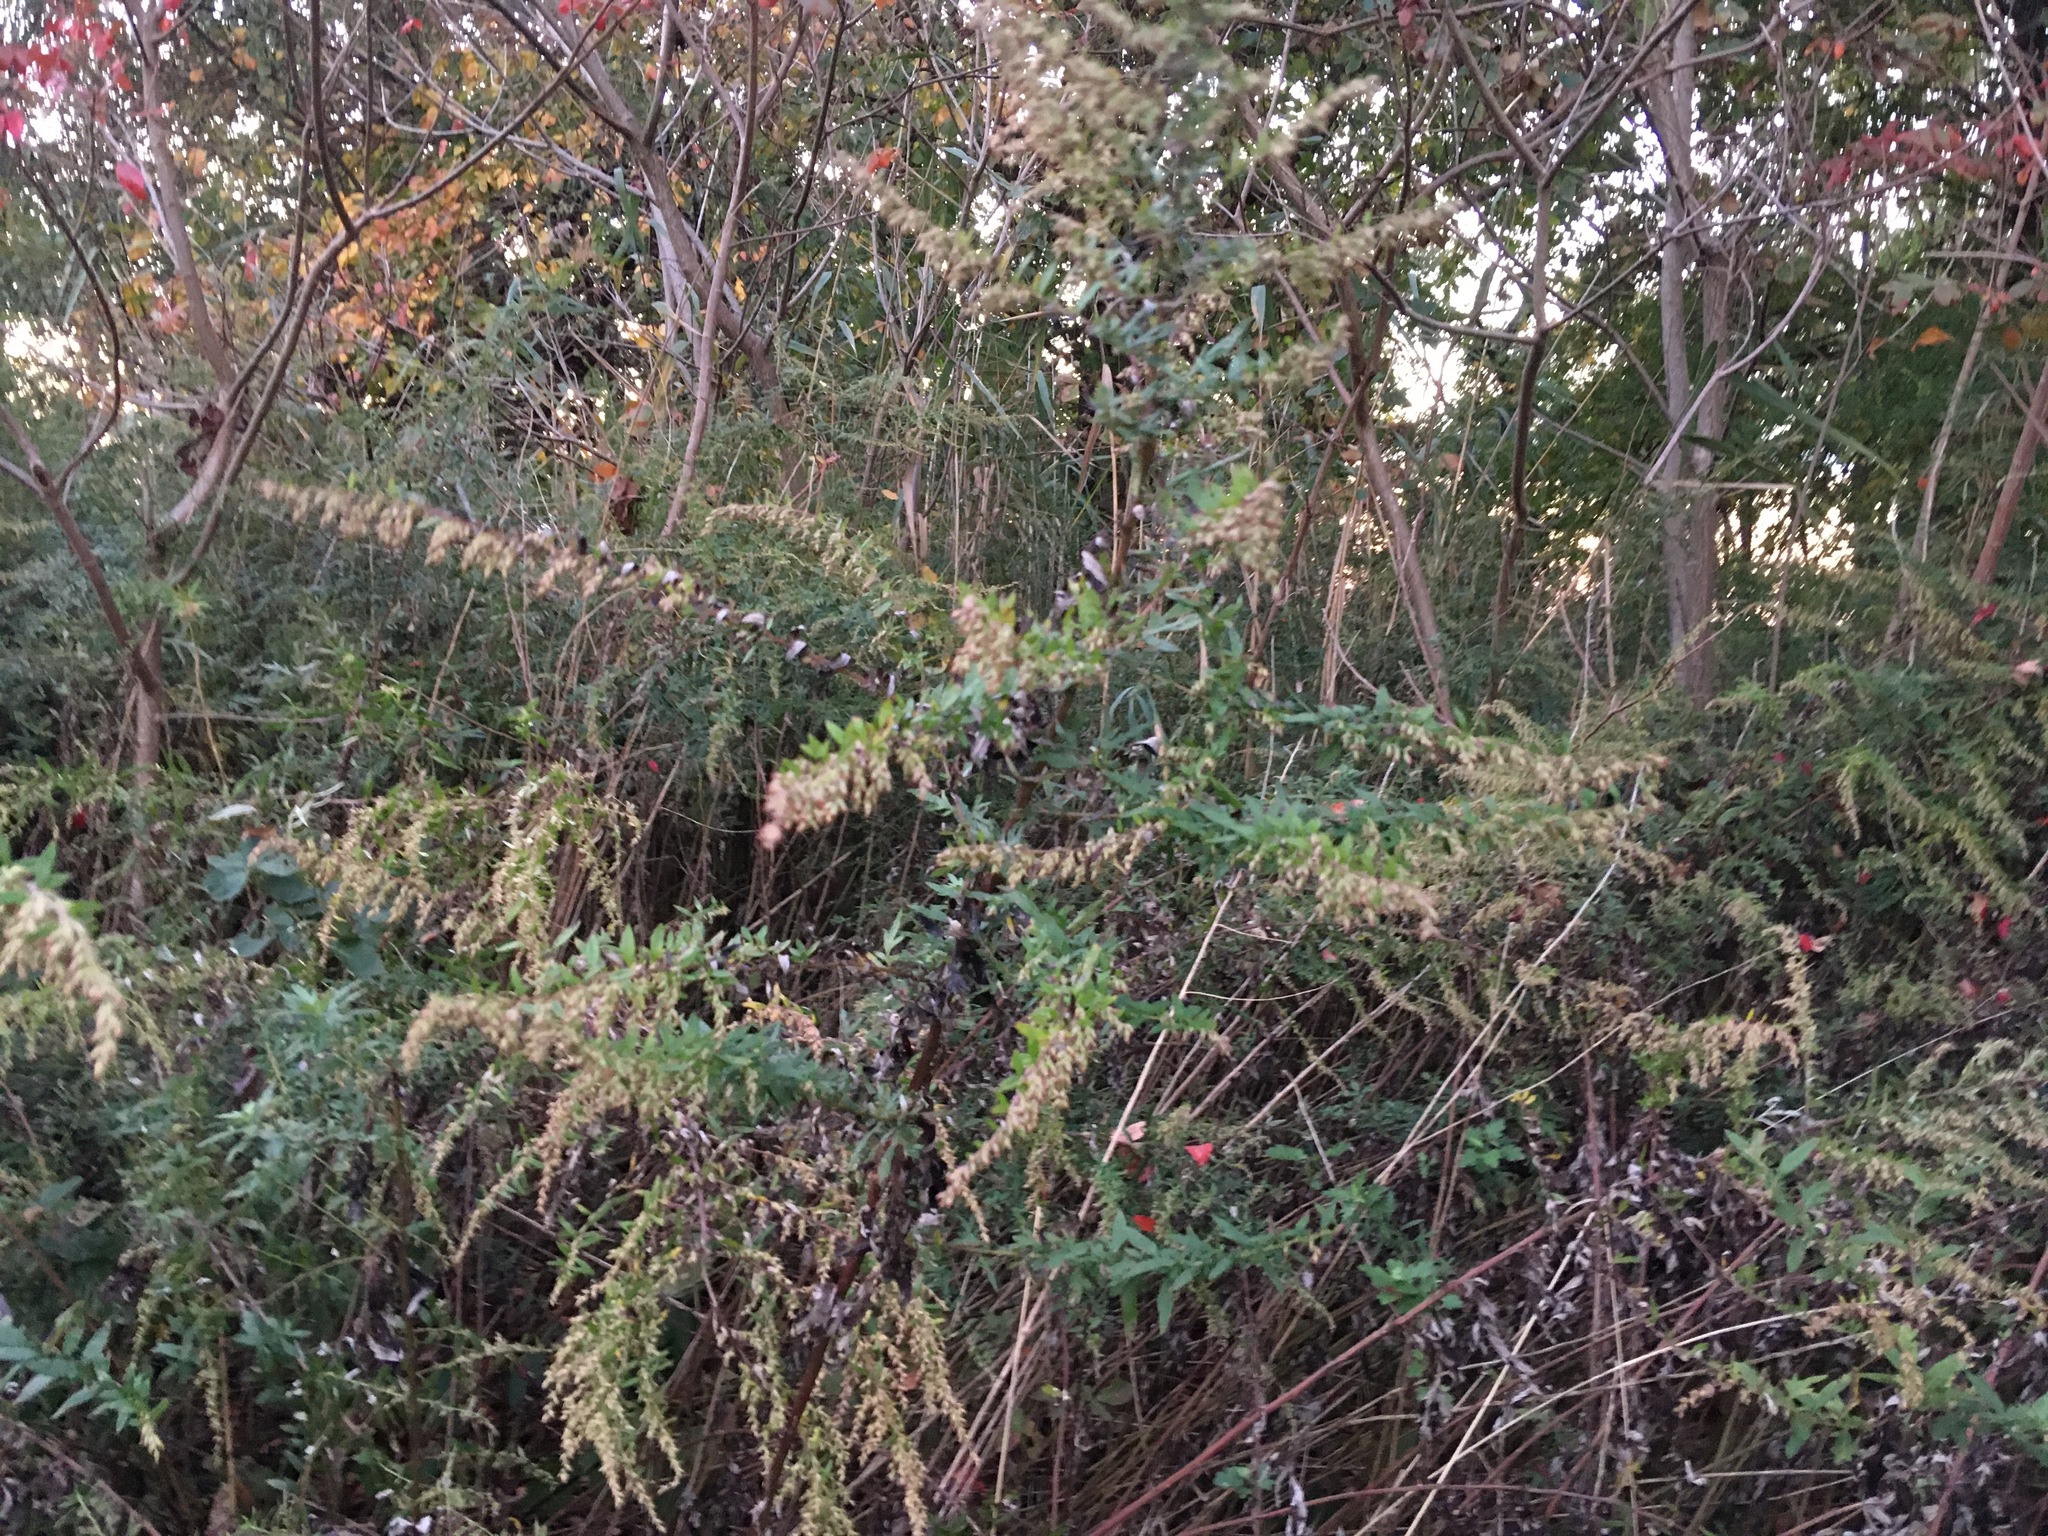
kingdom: Plantae
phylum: Tracheophyta
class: Magnoliopsida
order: Asterales
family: Asteraceae
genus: Artemisia
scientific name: Artemisia vulgaris
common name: Mugwort
